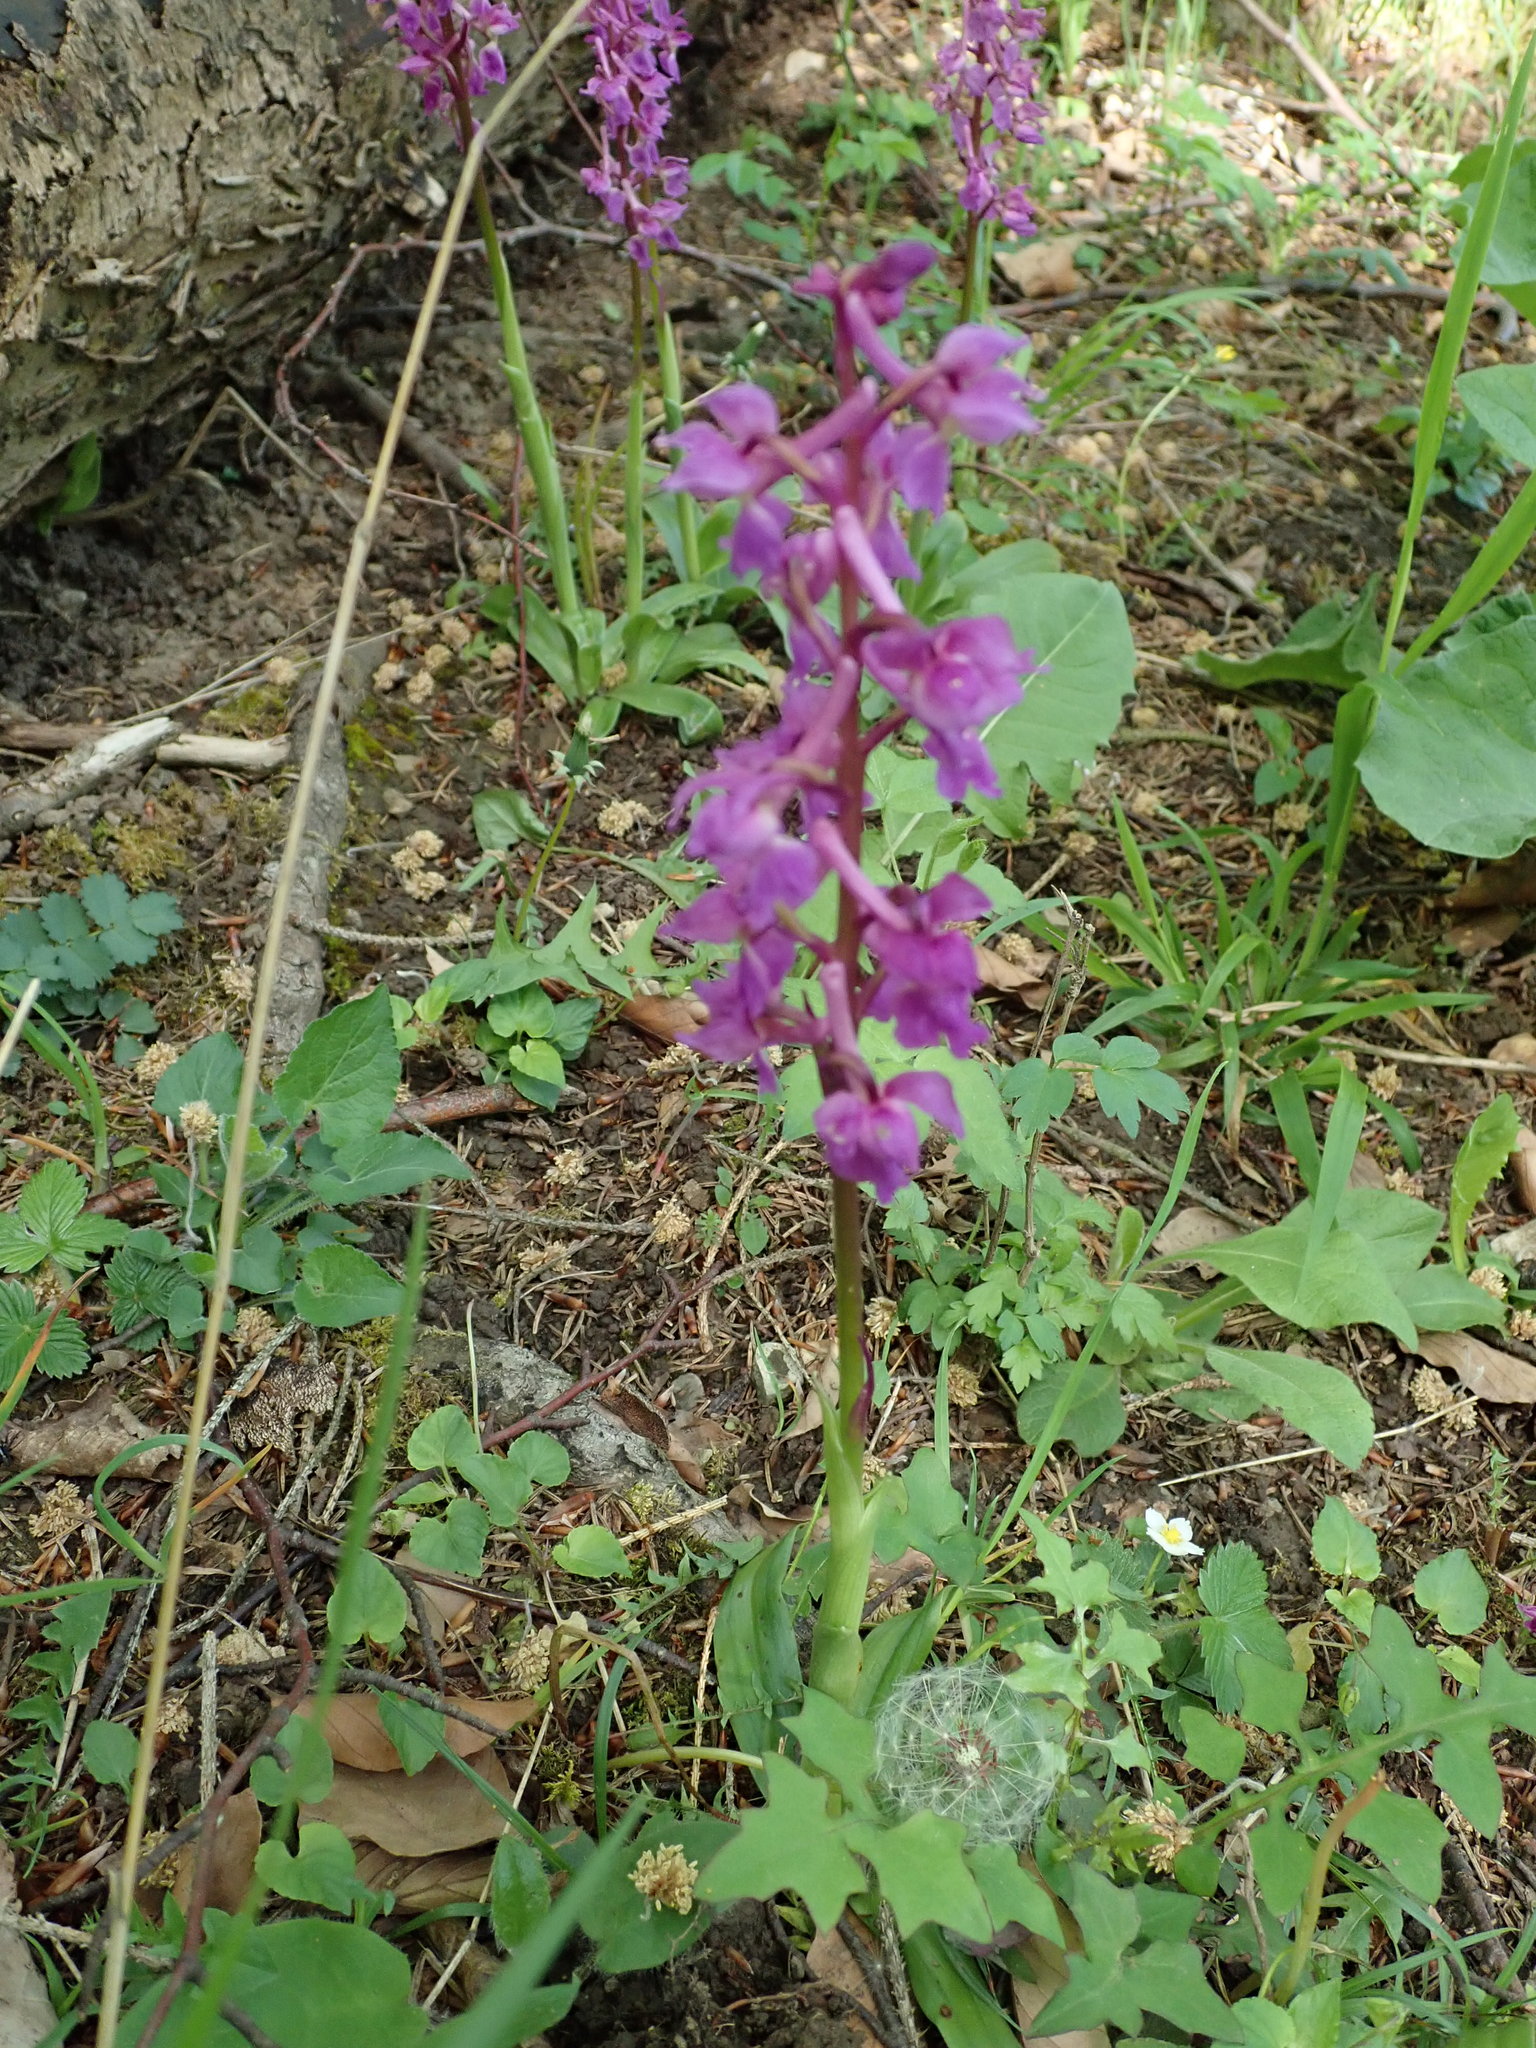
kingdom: Plantae
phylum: Tracheophyta
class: Liliopsida
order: Asparagales
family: Orchidaceae
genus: Orchis
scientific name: Orchis mascula
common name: Early-purple orchid
